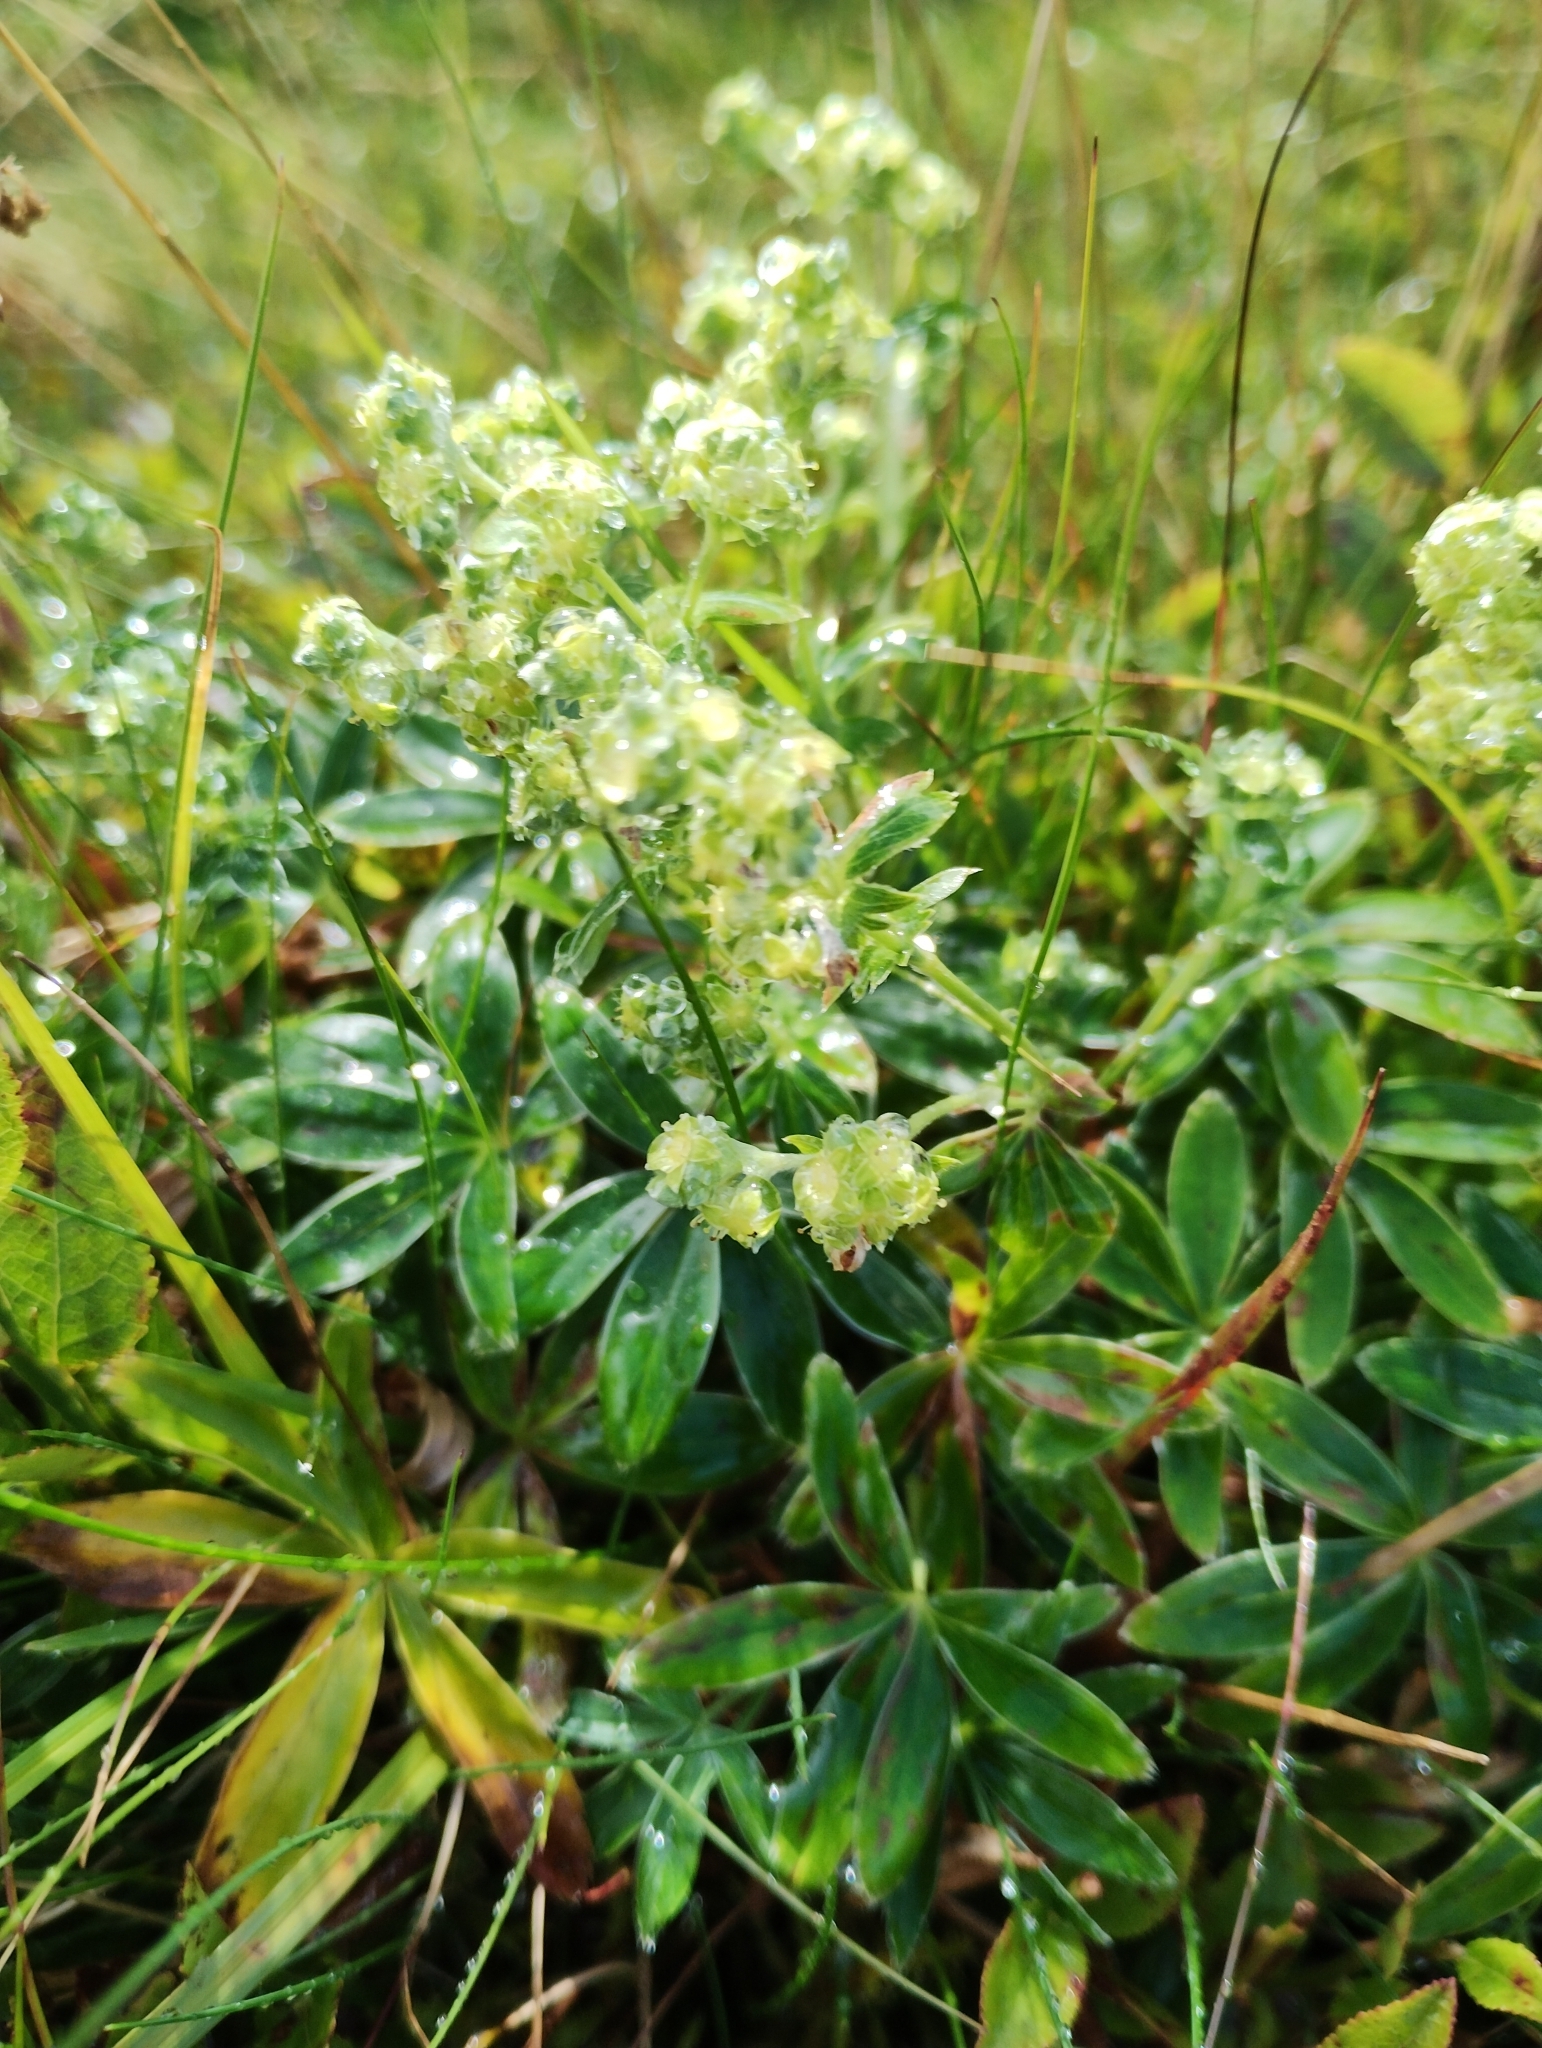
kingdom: Plantae
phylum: Tracheophyta
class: Magnoliopsida
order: Rosales
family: Rosaceae
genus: Alchemilla
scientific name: Alchemilla alpina
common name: Alpine lady's-mantle
